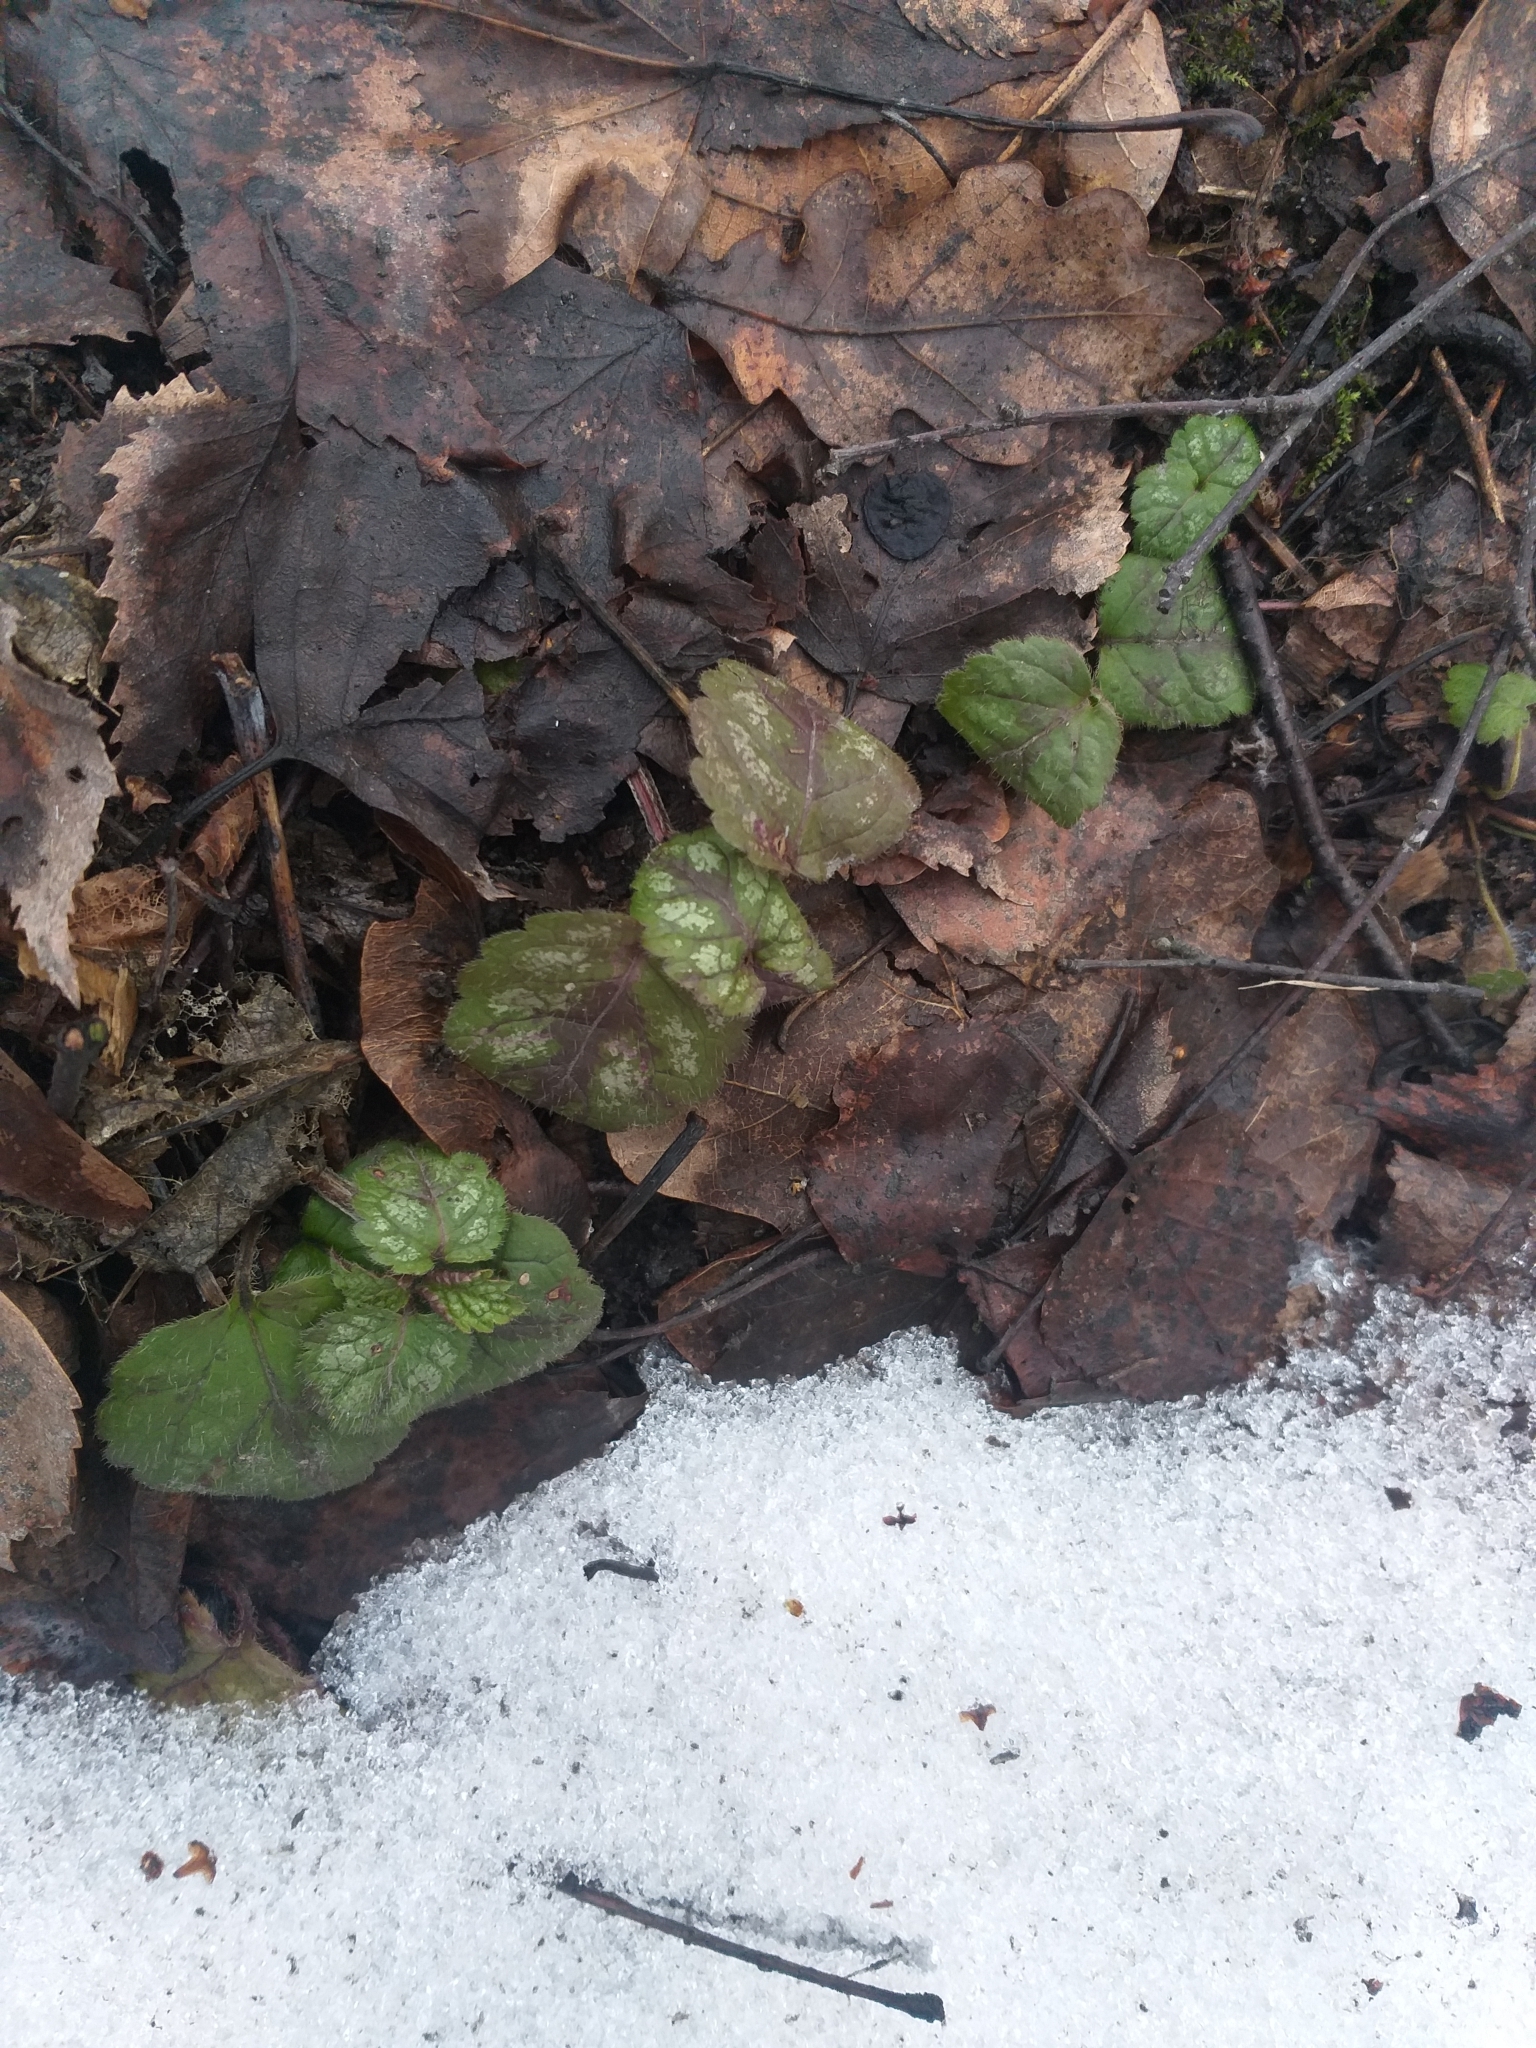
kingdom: Plantae
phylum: Tracheophyta
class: Magnoliopsida
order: Lamiales
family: Lamiaceae
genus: Lamium
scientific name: Lamium galeobdolon
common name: Yellow archangel
